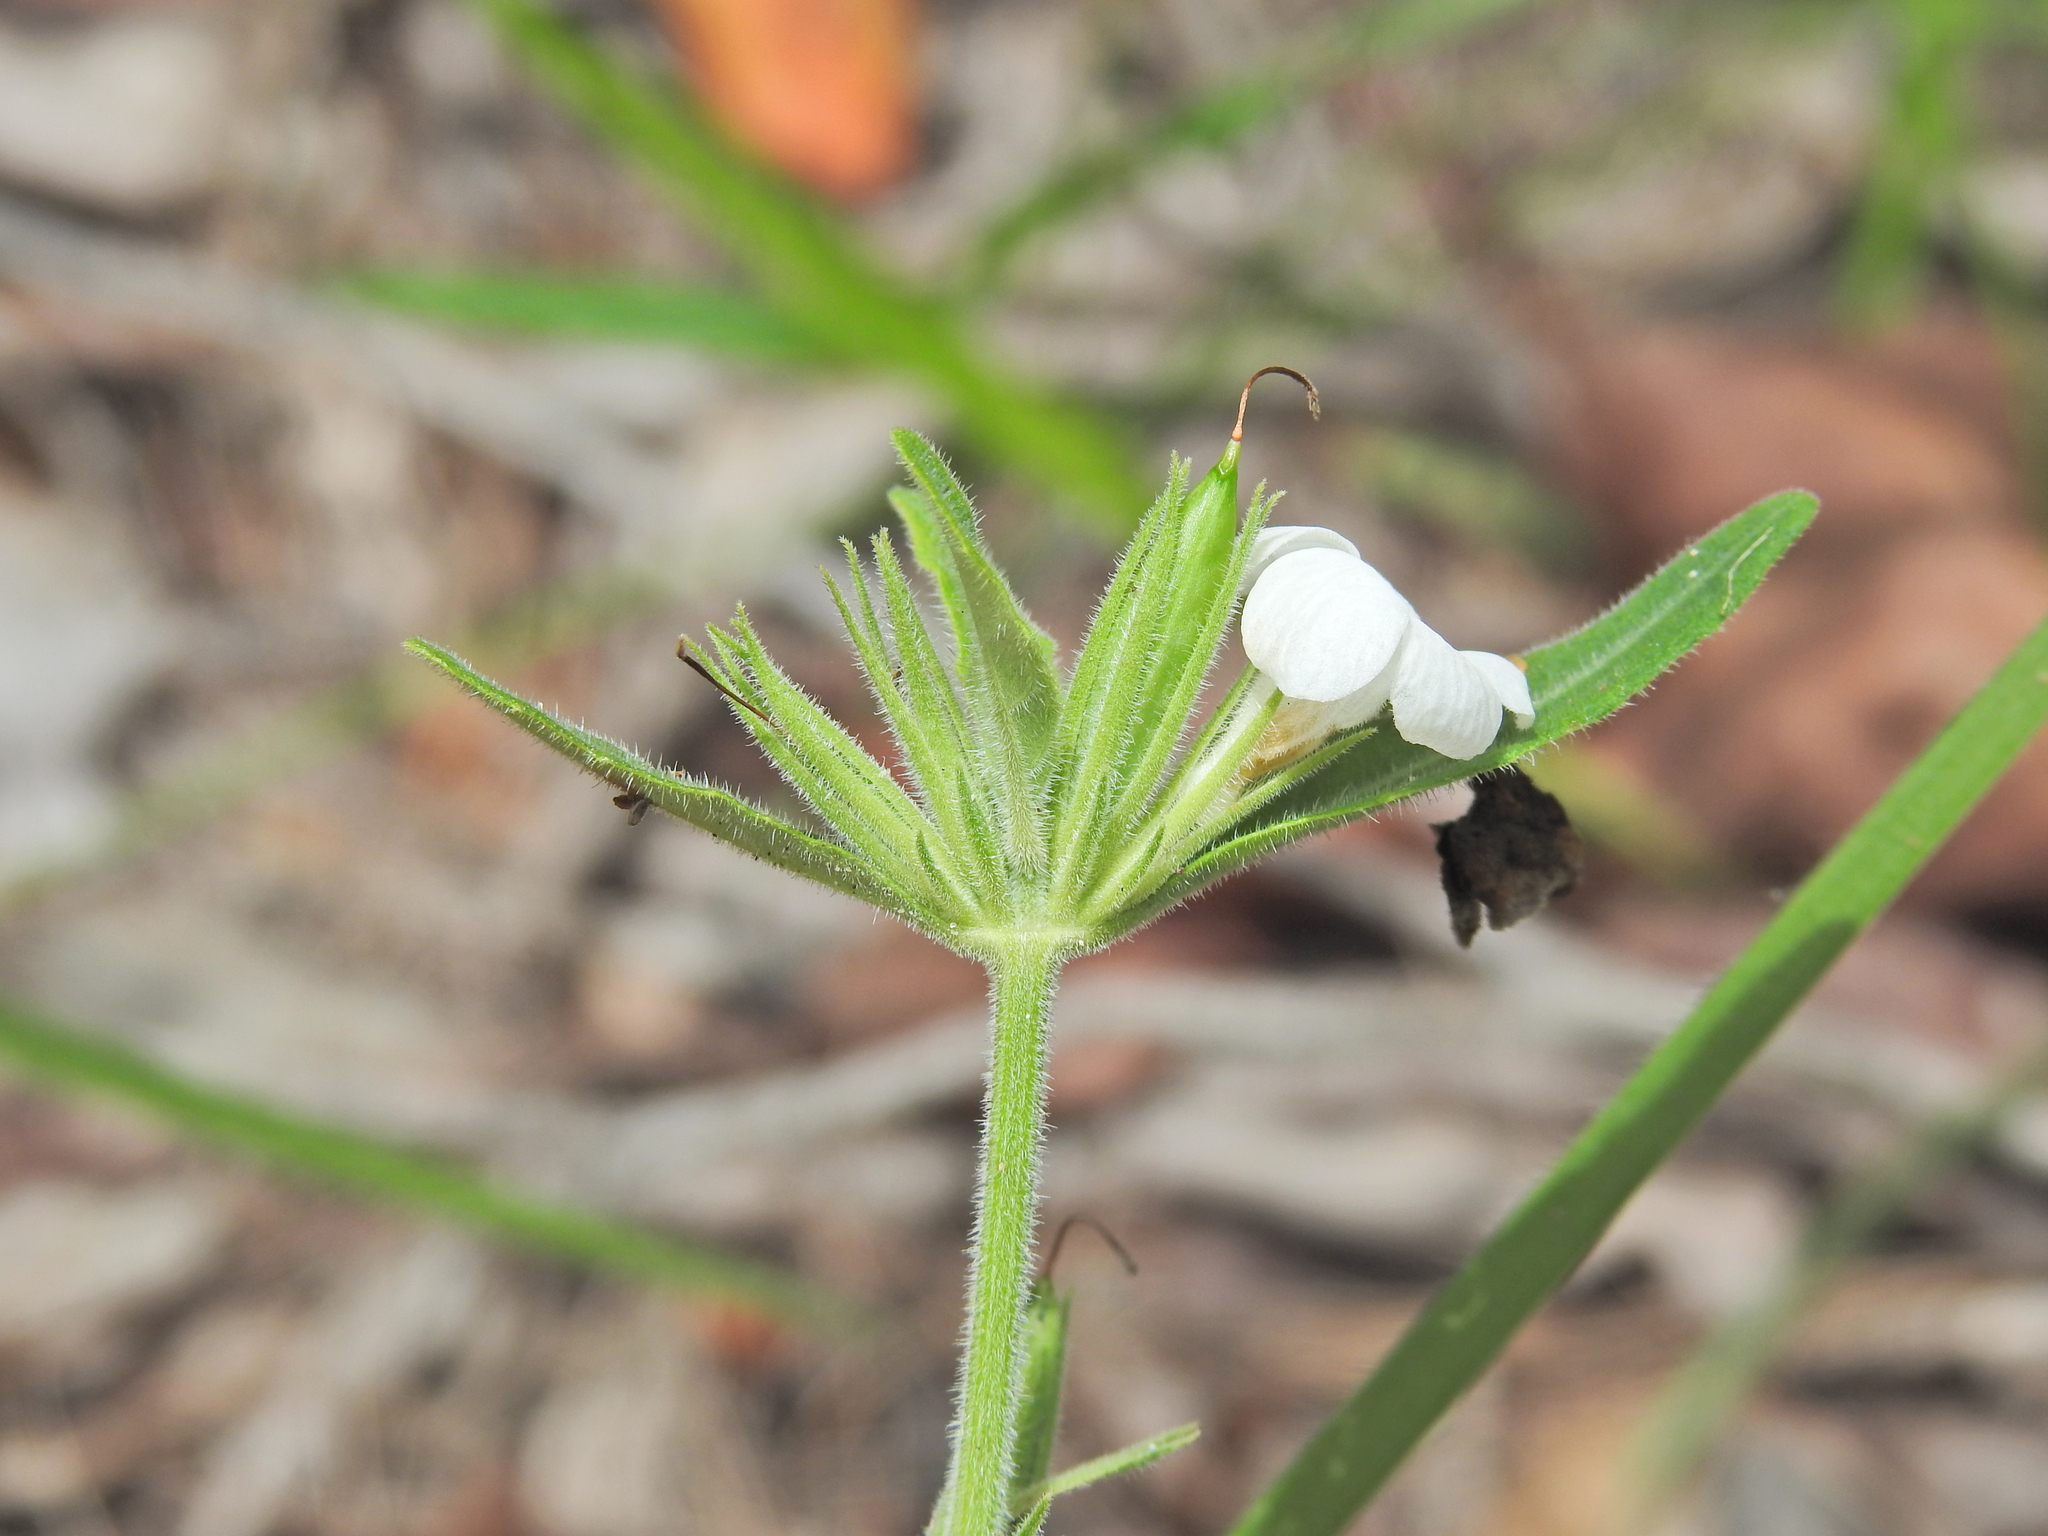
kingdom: Plantae
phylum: Tracheophyta
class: Magnoliopsida
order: Lamiales
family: Acanthaceae
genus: Brunoniella
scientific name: Brunoniella australis
